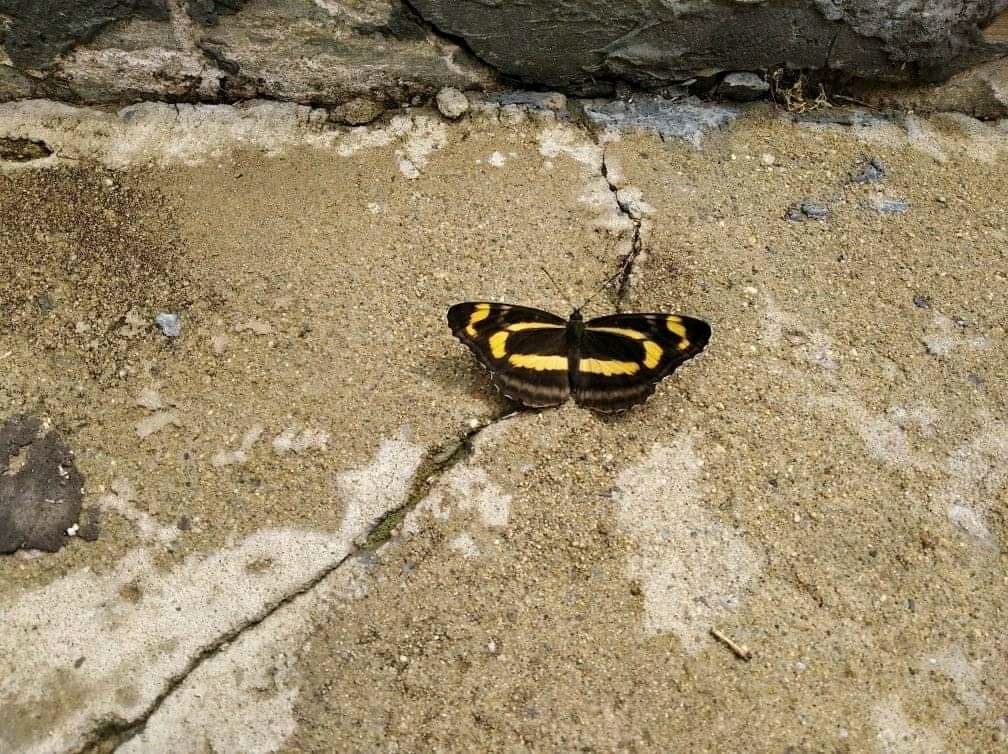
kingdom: Animalia
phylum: Arthropoda
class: Insecta
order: Lepidoptera
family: Nymphalidae
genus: Neptis
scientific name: Neptis tshetverikovi
